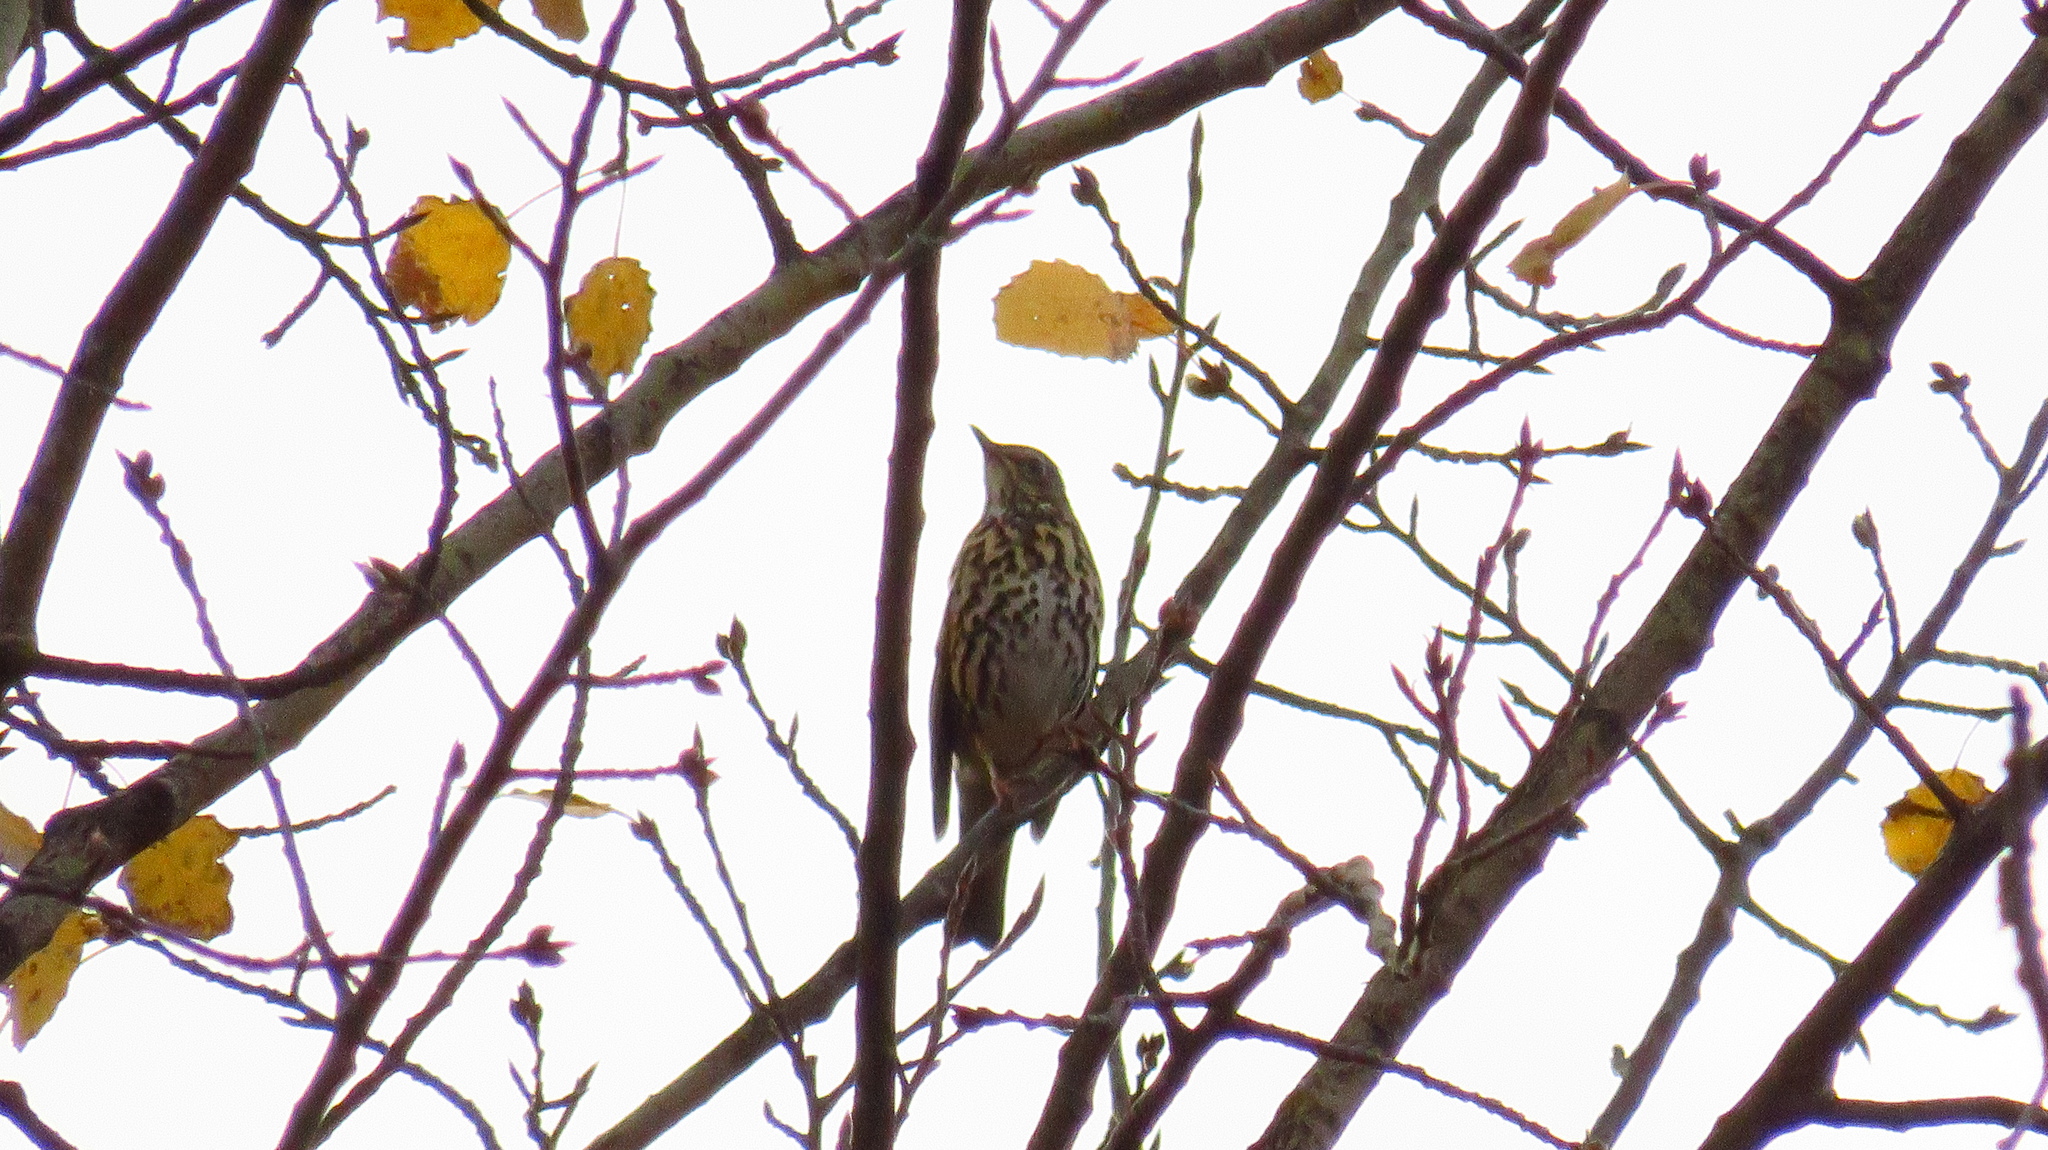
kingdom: Animalia
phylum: Chordata
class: Aves
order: Passeriformes
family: Turdidae
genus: Turdus
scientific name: Turdus philomelos
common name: Song thrush
